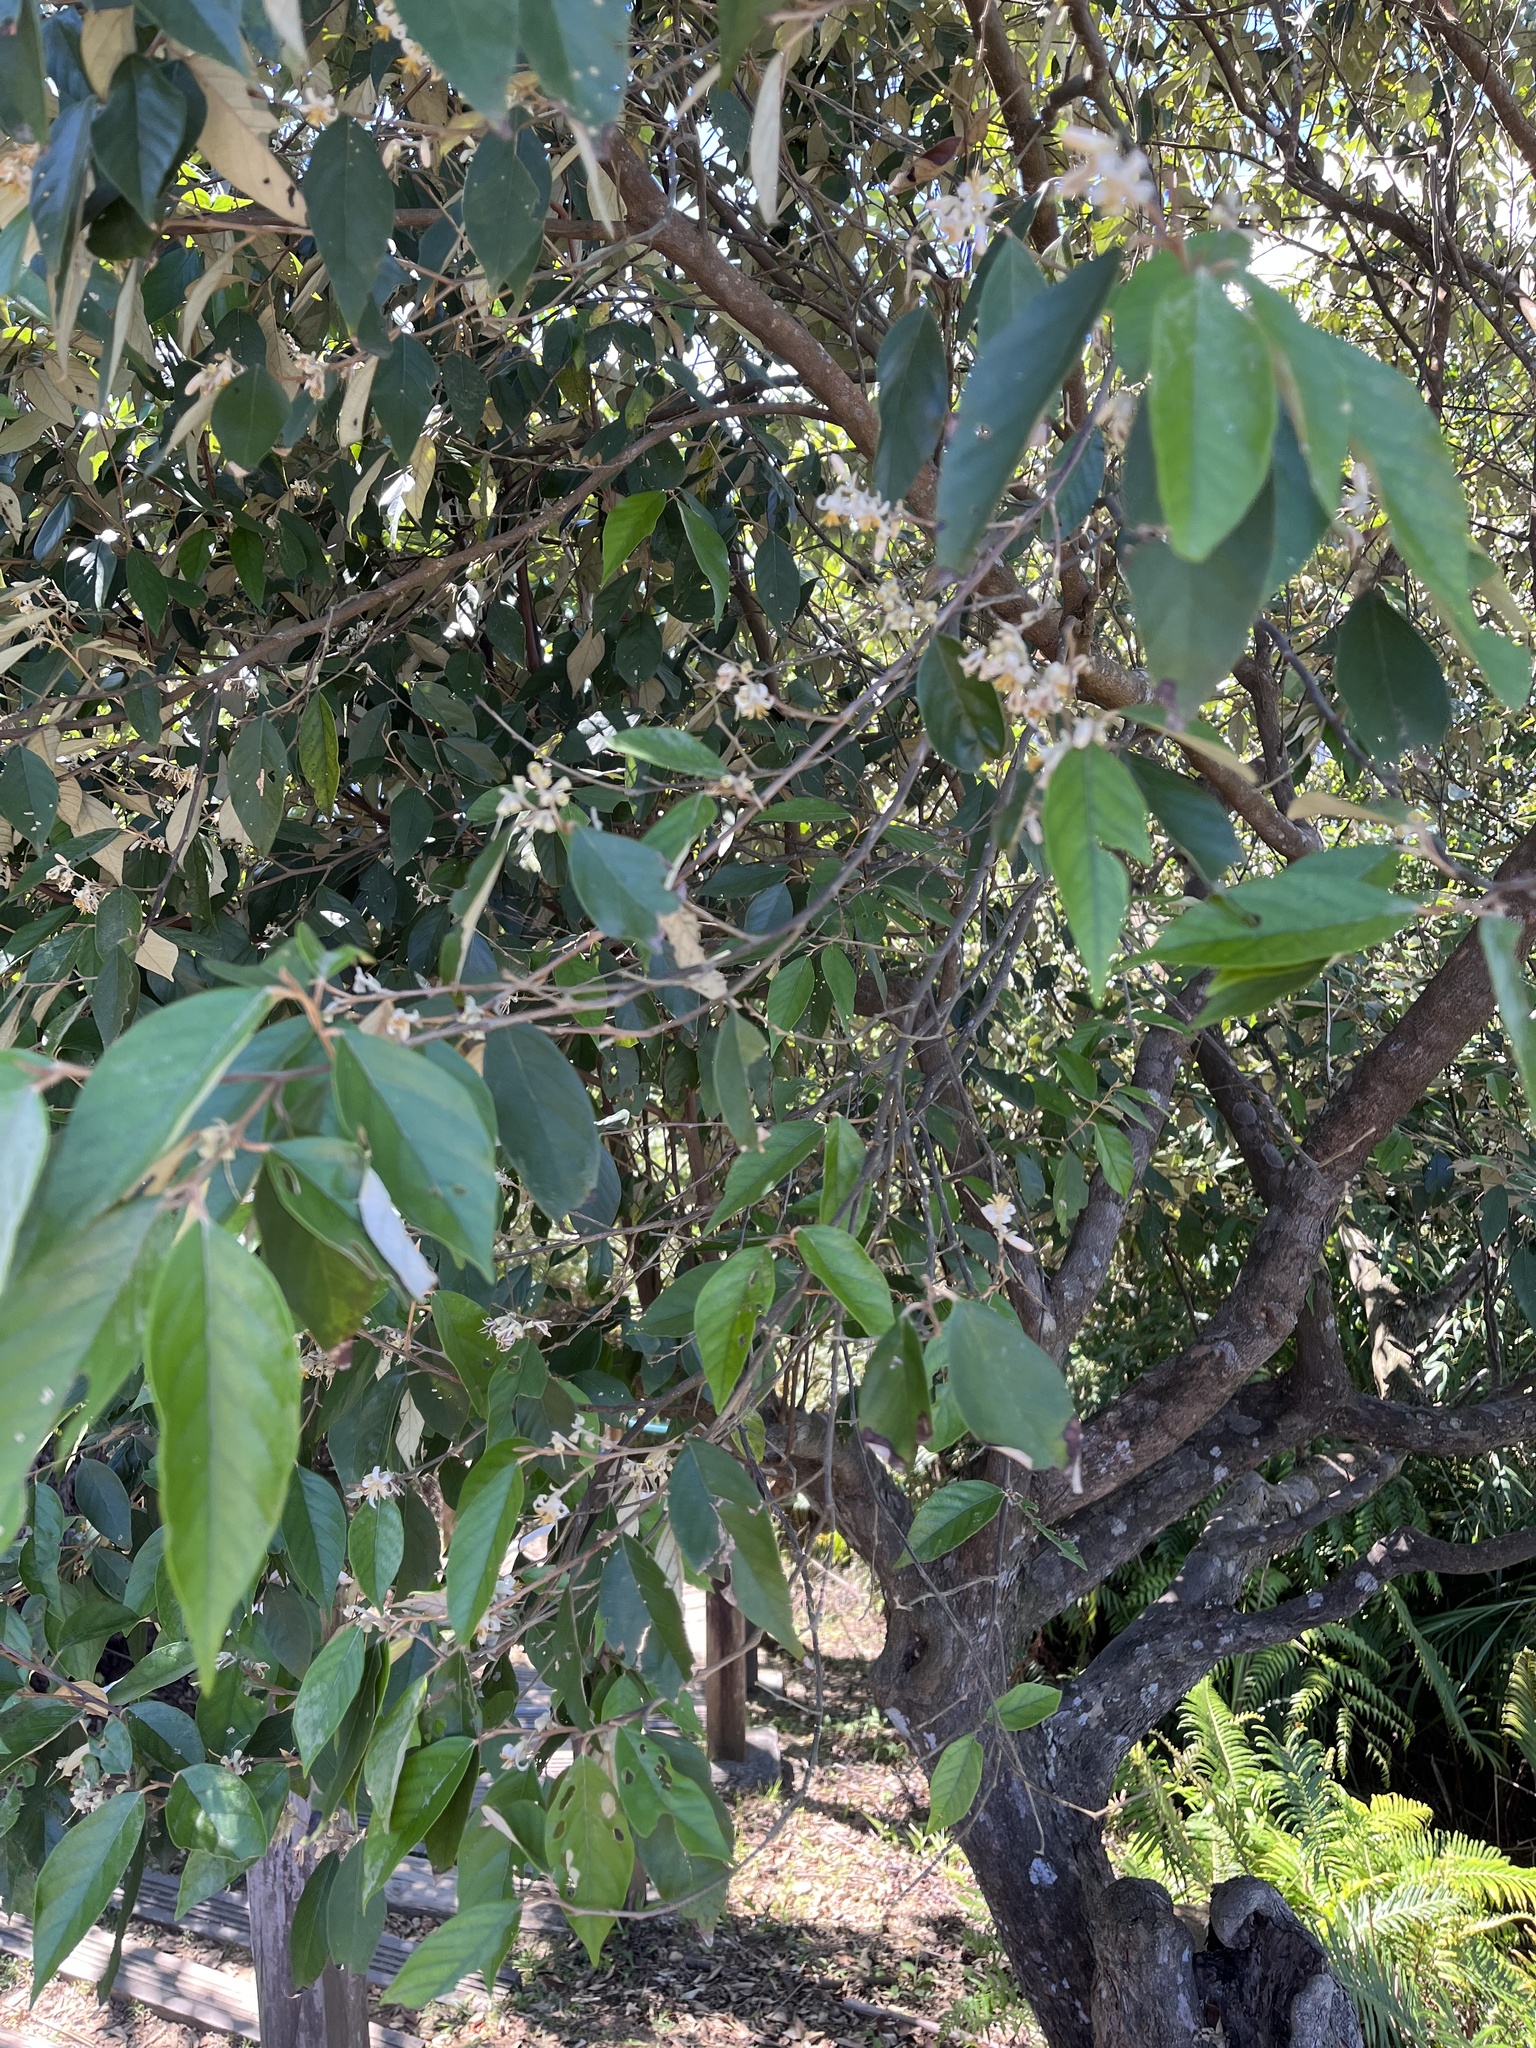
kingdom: Plantae
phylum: Tracheophyta
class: Magnoliopsida
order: Ericales
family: Styracaceae
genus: Styrax
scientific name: Styrax suberifolius
